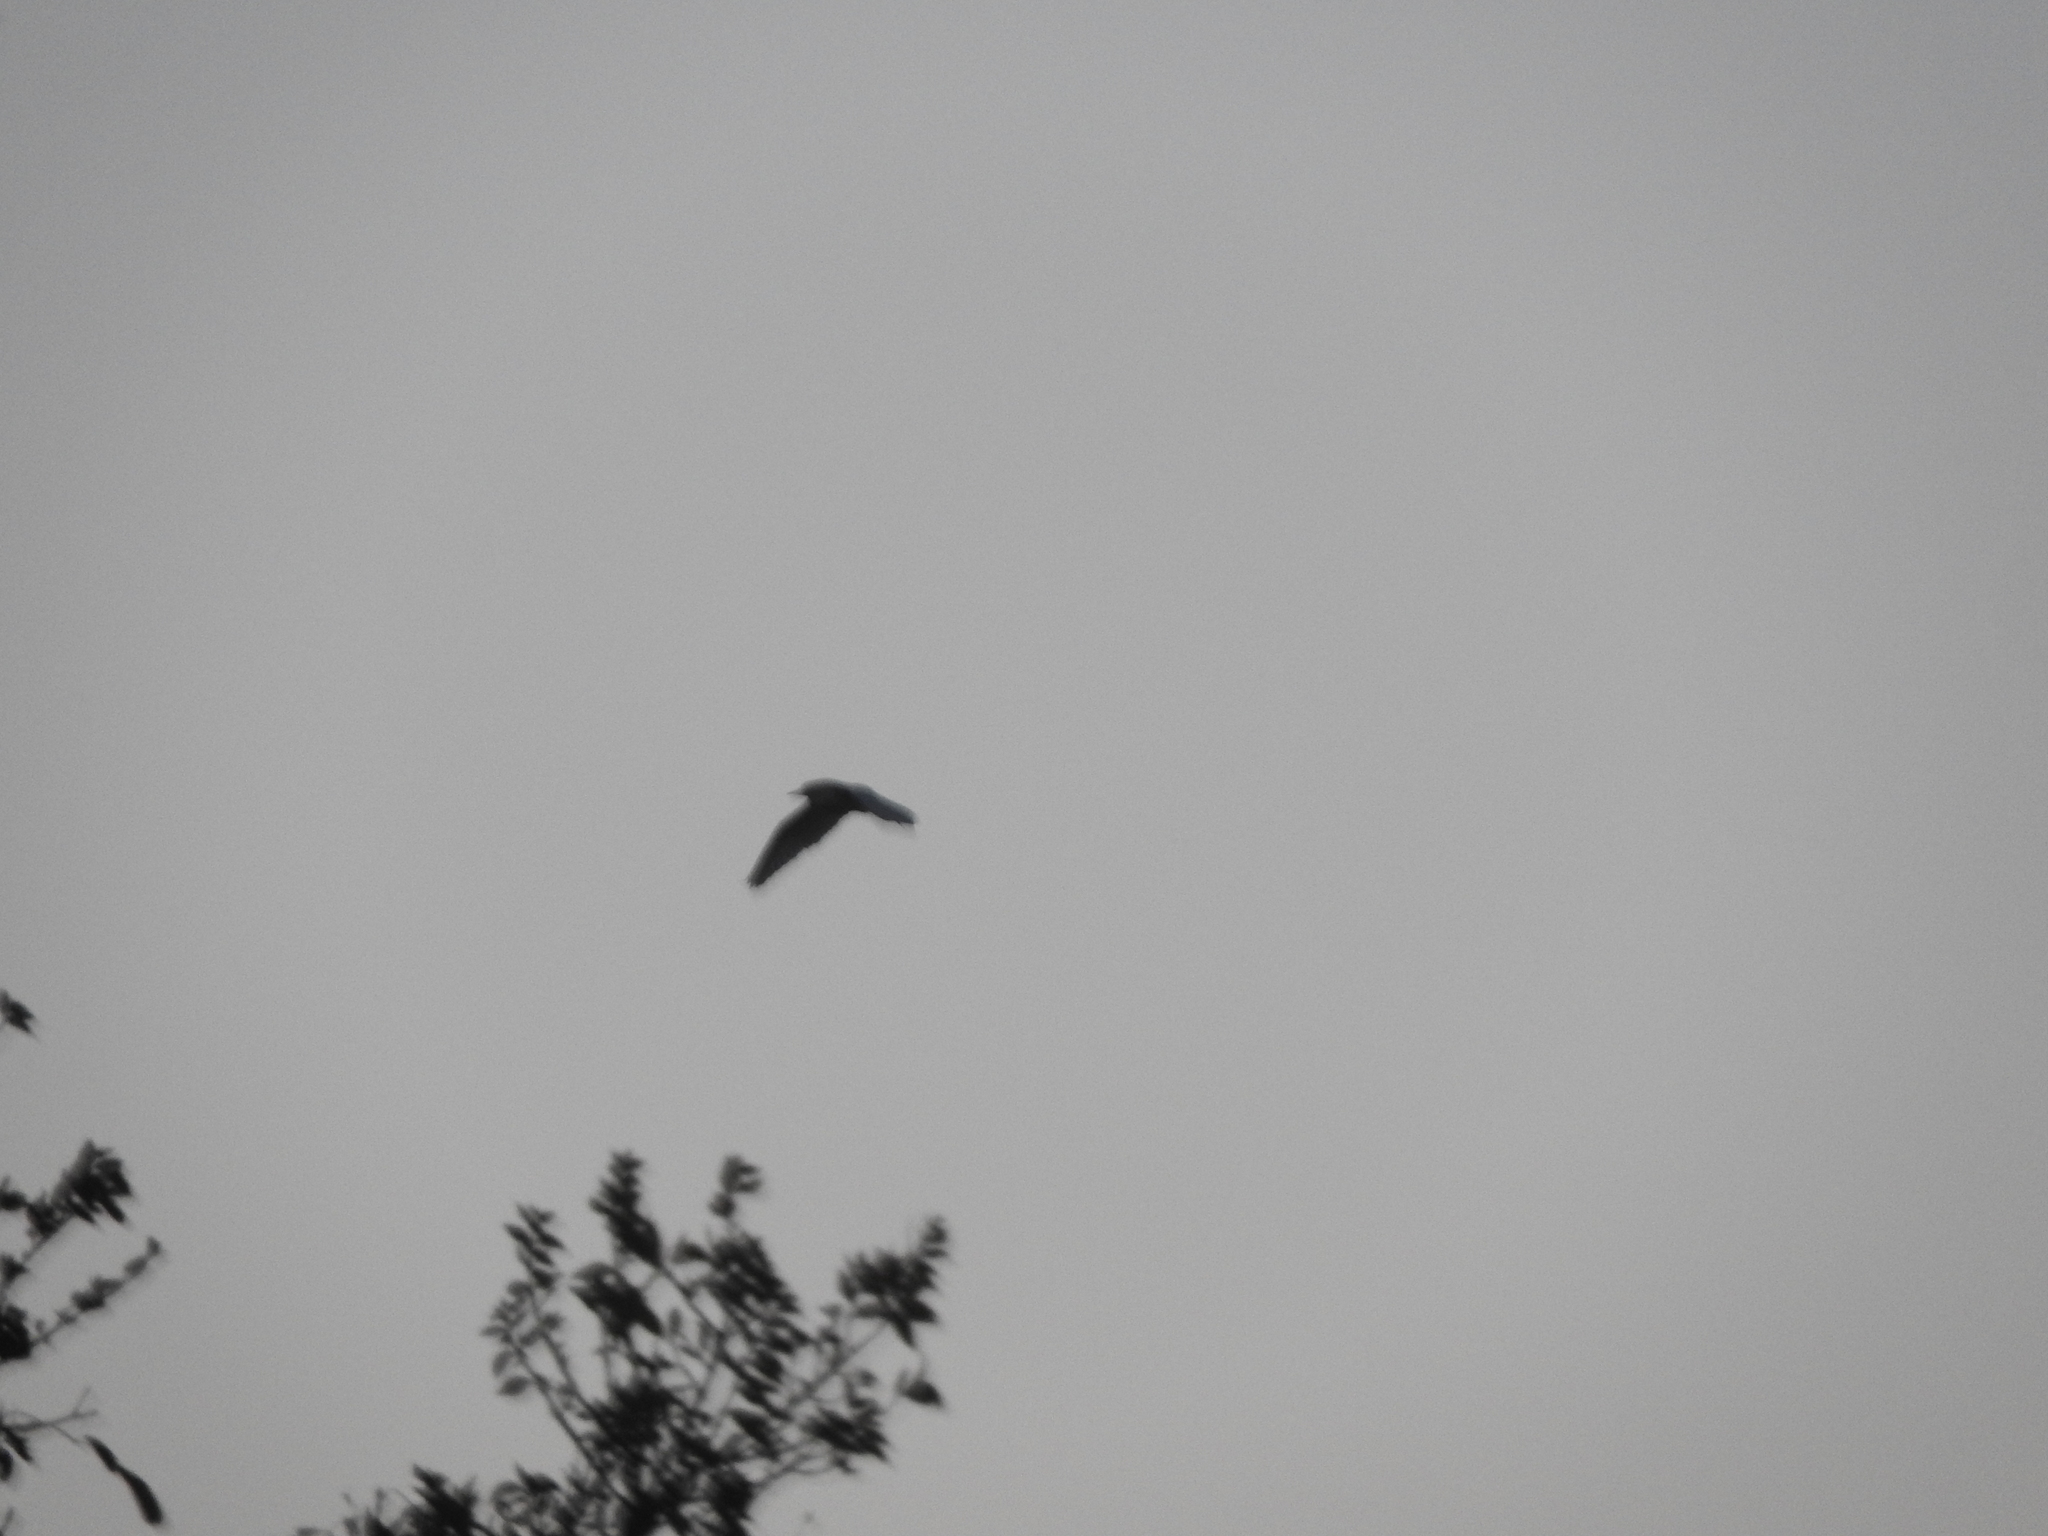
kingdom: Animalia
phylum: Chordata
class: Aves
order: Pelecaniformes
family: Ardeidae
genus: Bubulcus
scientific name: Bubulcus ibis
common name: Cattle egret
